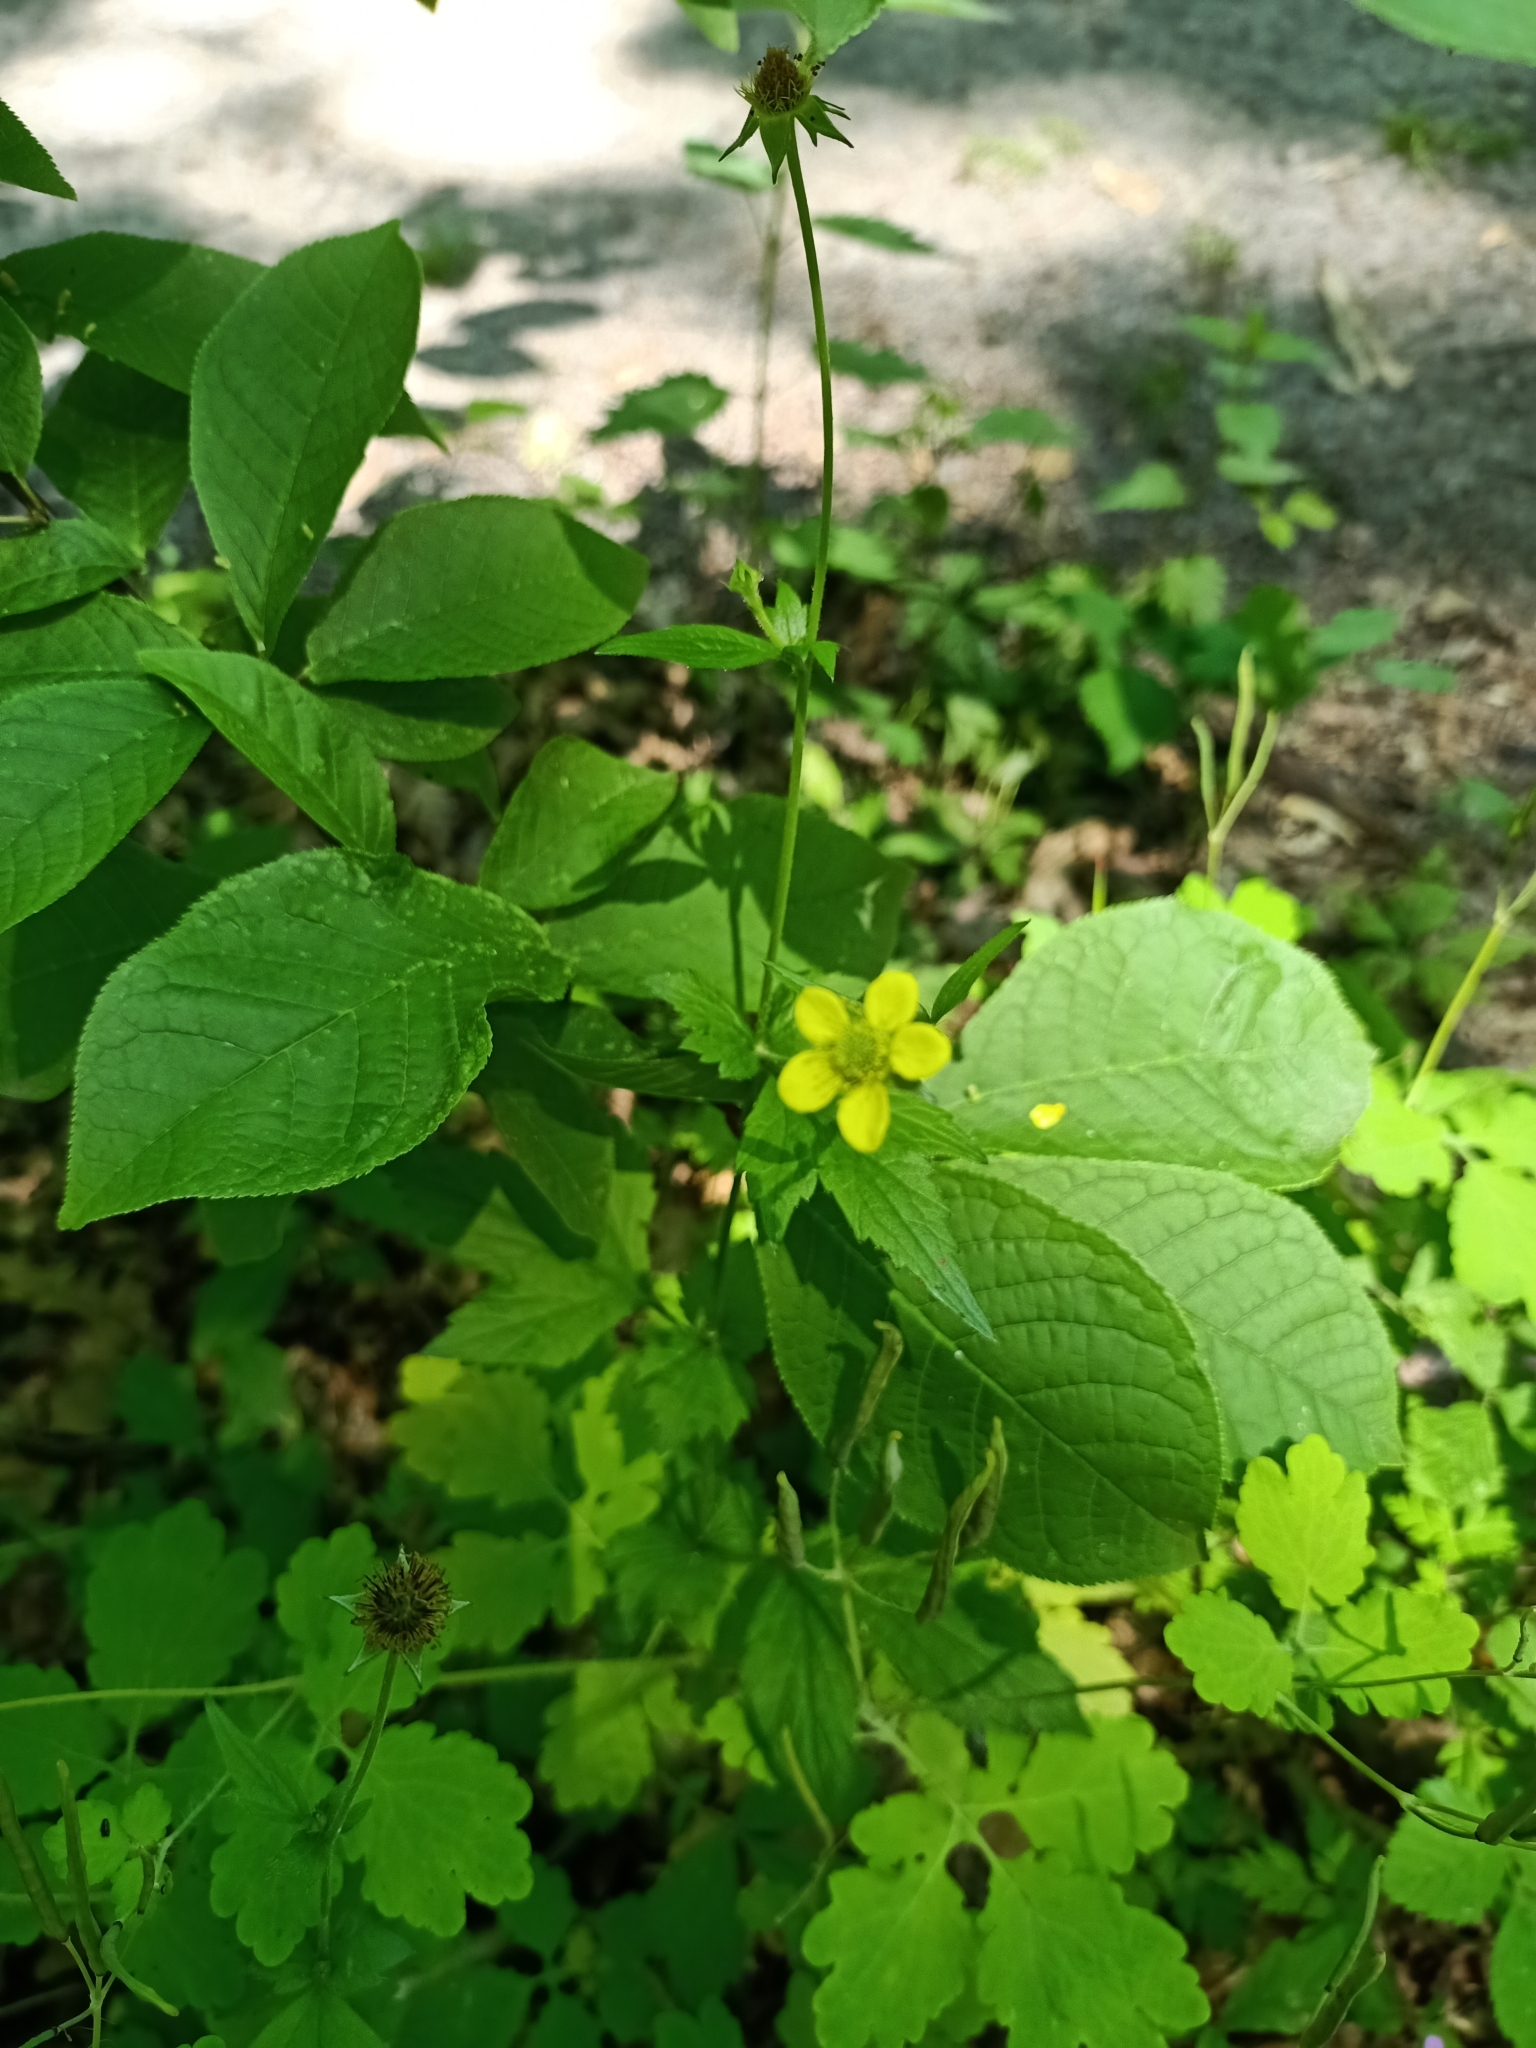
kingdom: Plantae
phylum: Tracheophyta
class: Magnoliopsida
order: Rosales
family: Rosaceae
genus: Geum
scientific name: Geum urbanum
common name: Wood avens
